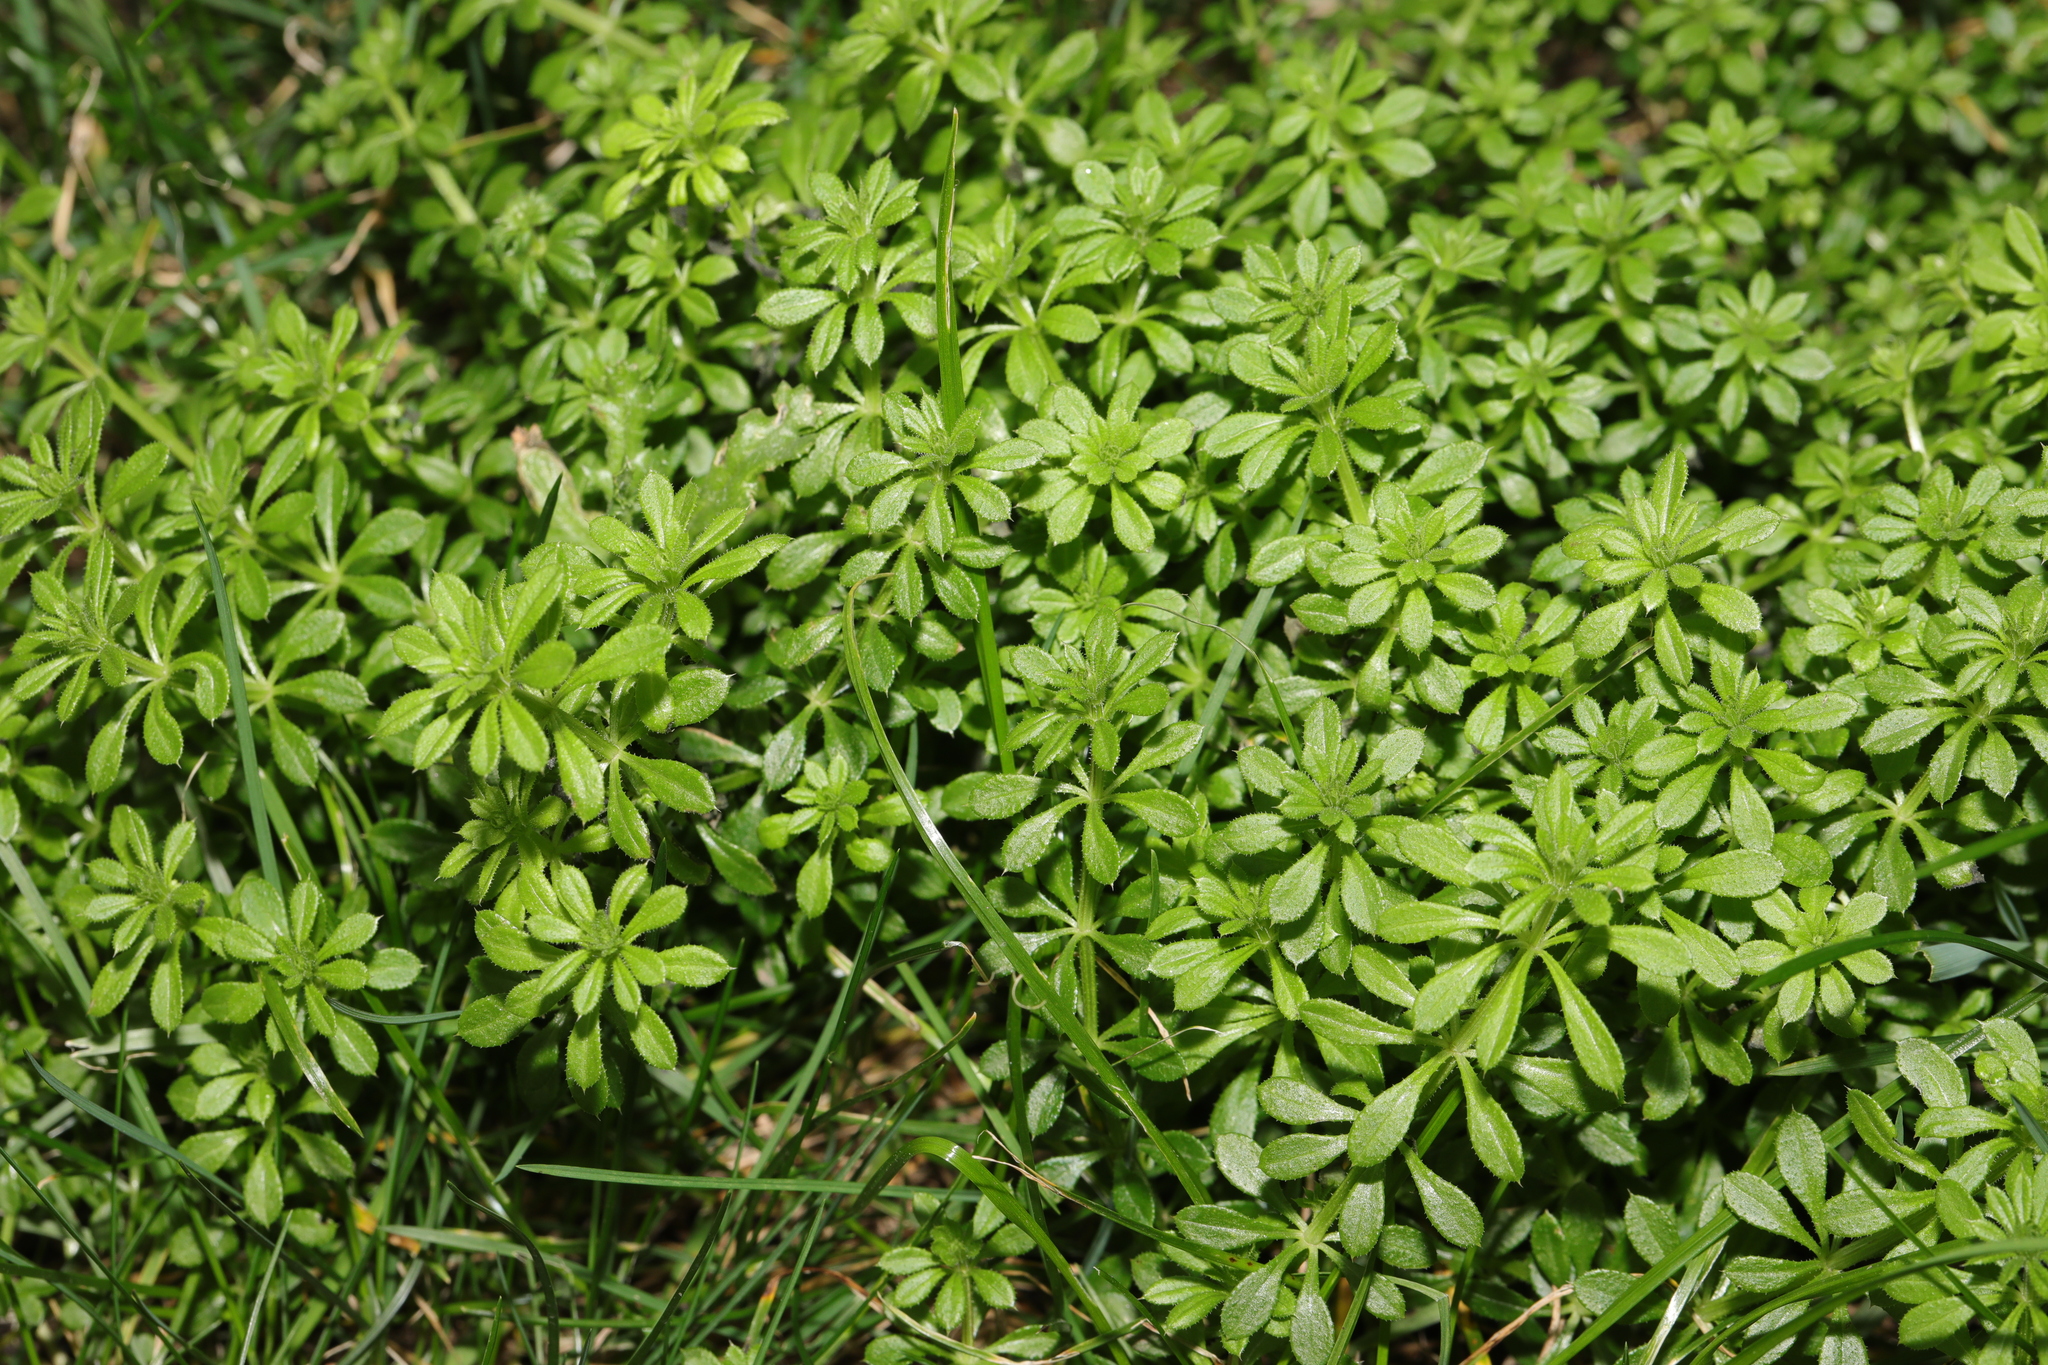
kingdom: Plantae
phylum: Tracheophyta
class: Magnoliopsida
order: Gentianales
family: Rubiaceae
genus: Galium
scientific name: Galium aparine
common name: Cleavers
